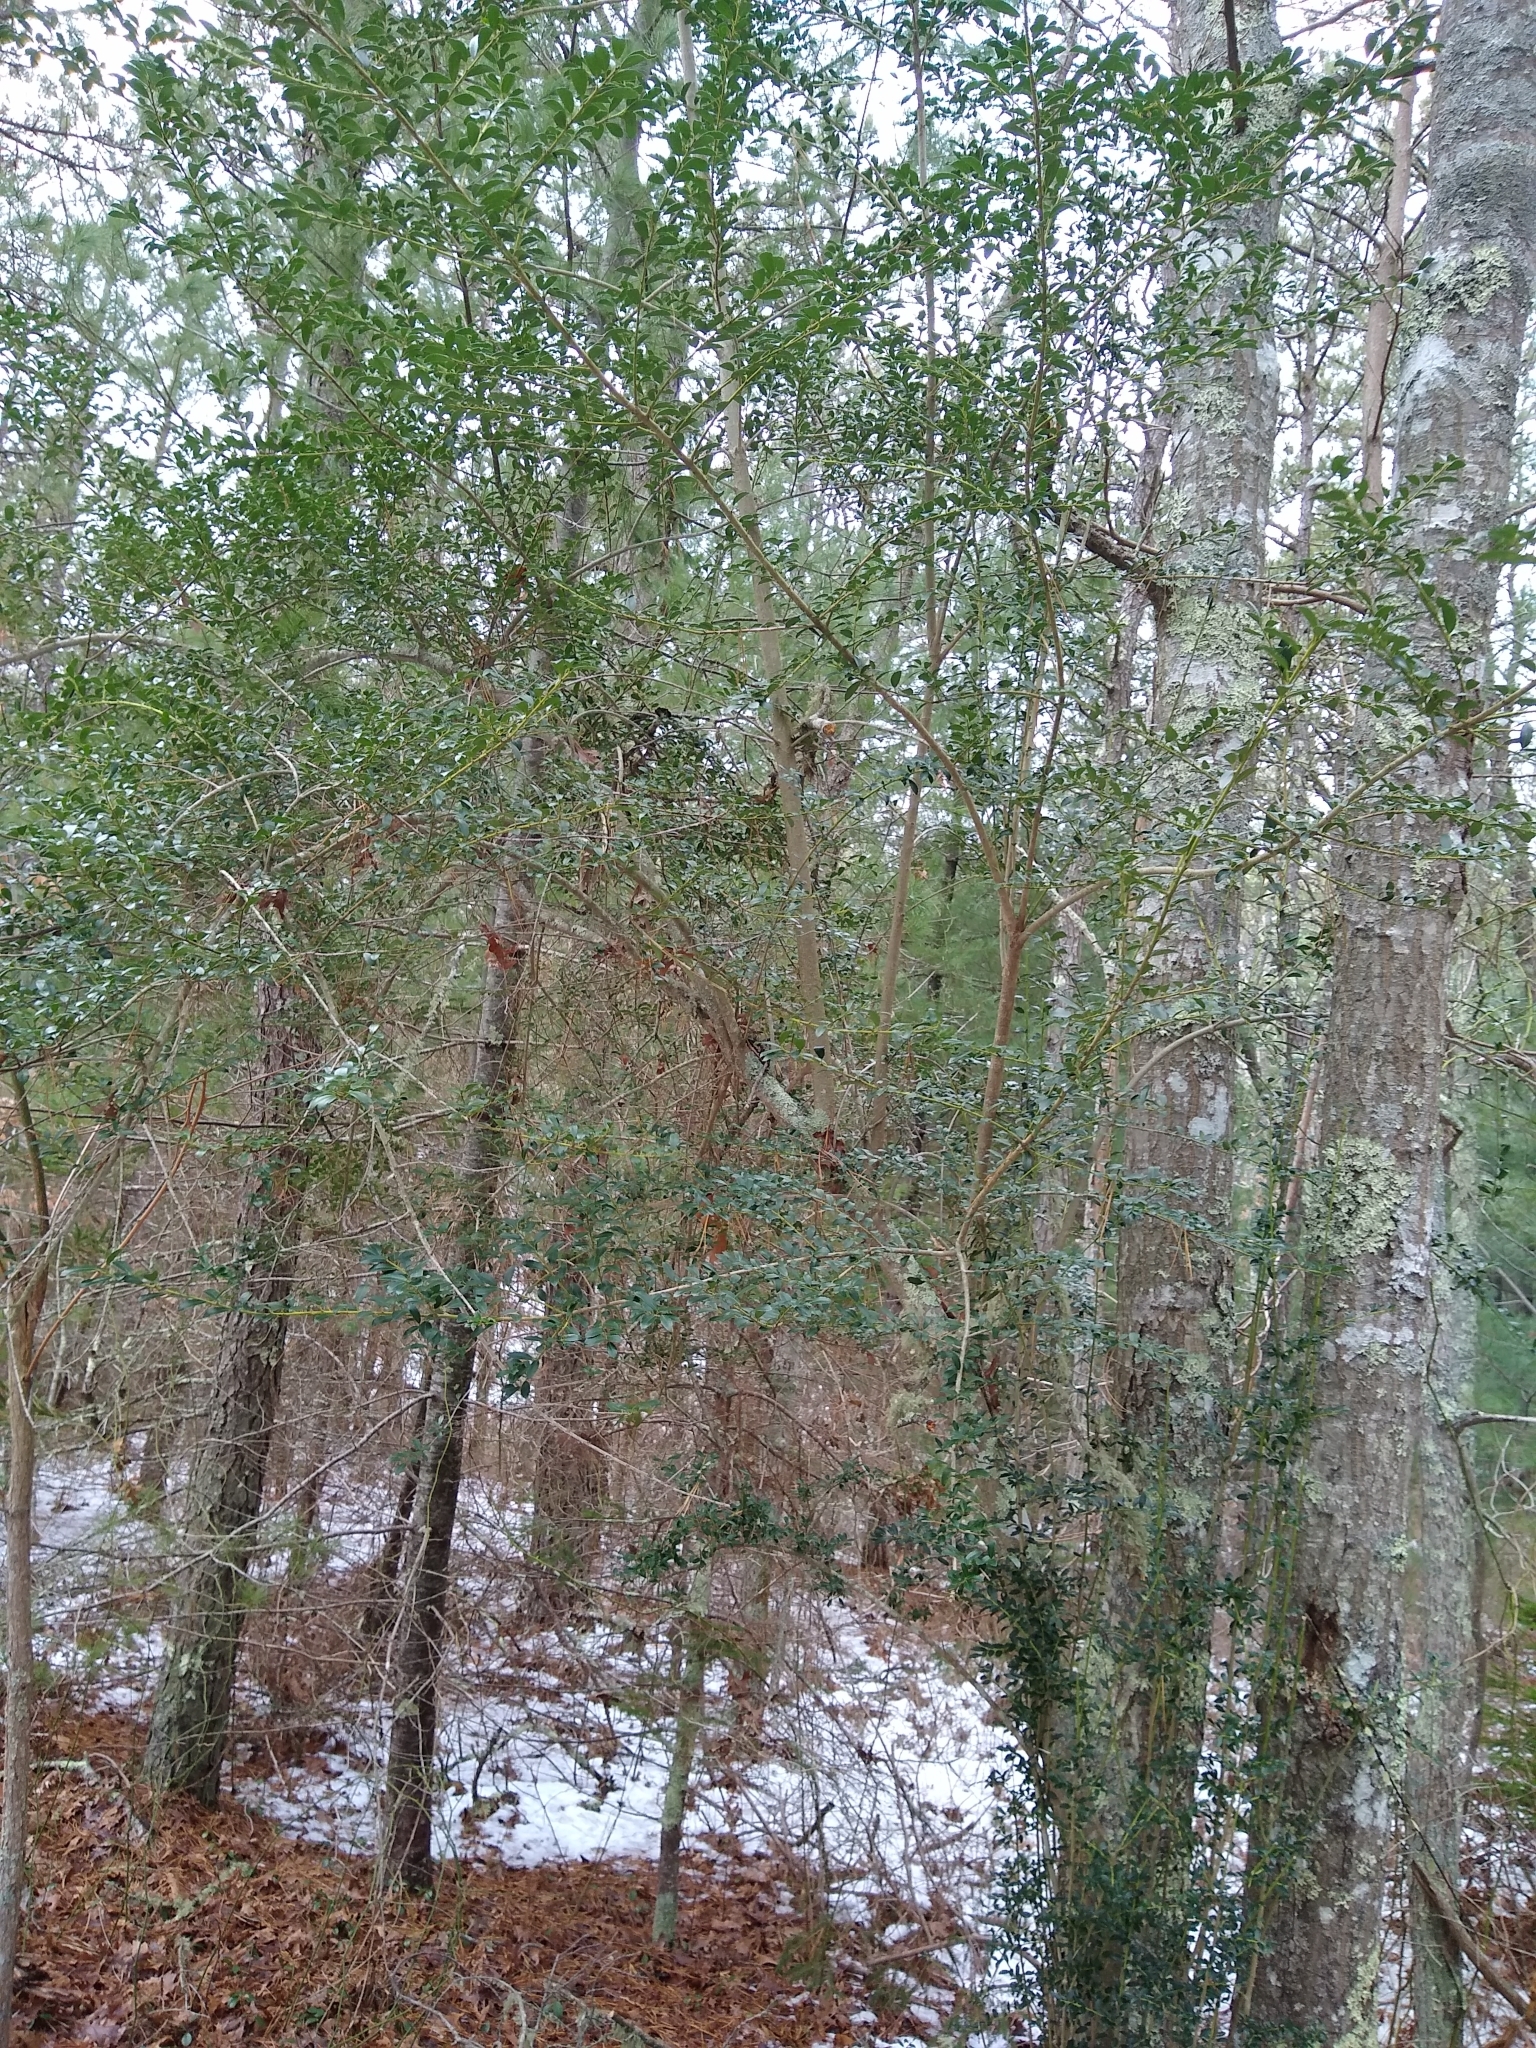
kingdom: Plantae
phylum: Tracheophyta
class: Magnoliopsida
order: Aquifoliales
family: Aquifoliaceae
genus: Ilex
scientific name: Ilex crenata
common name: Japanese holly
